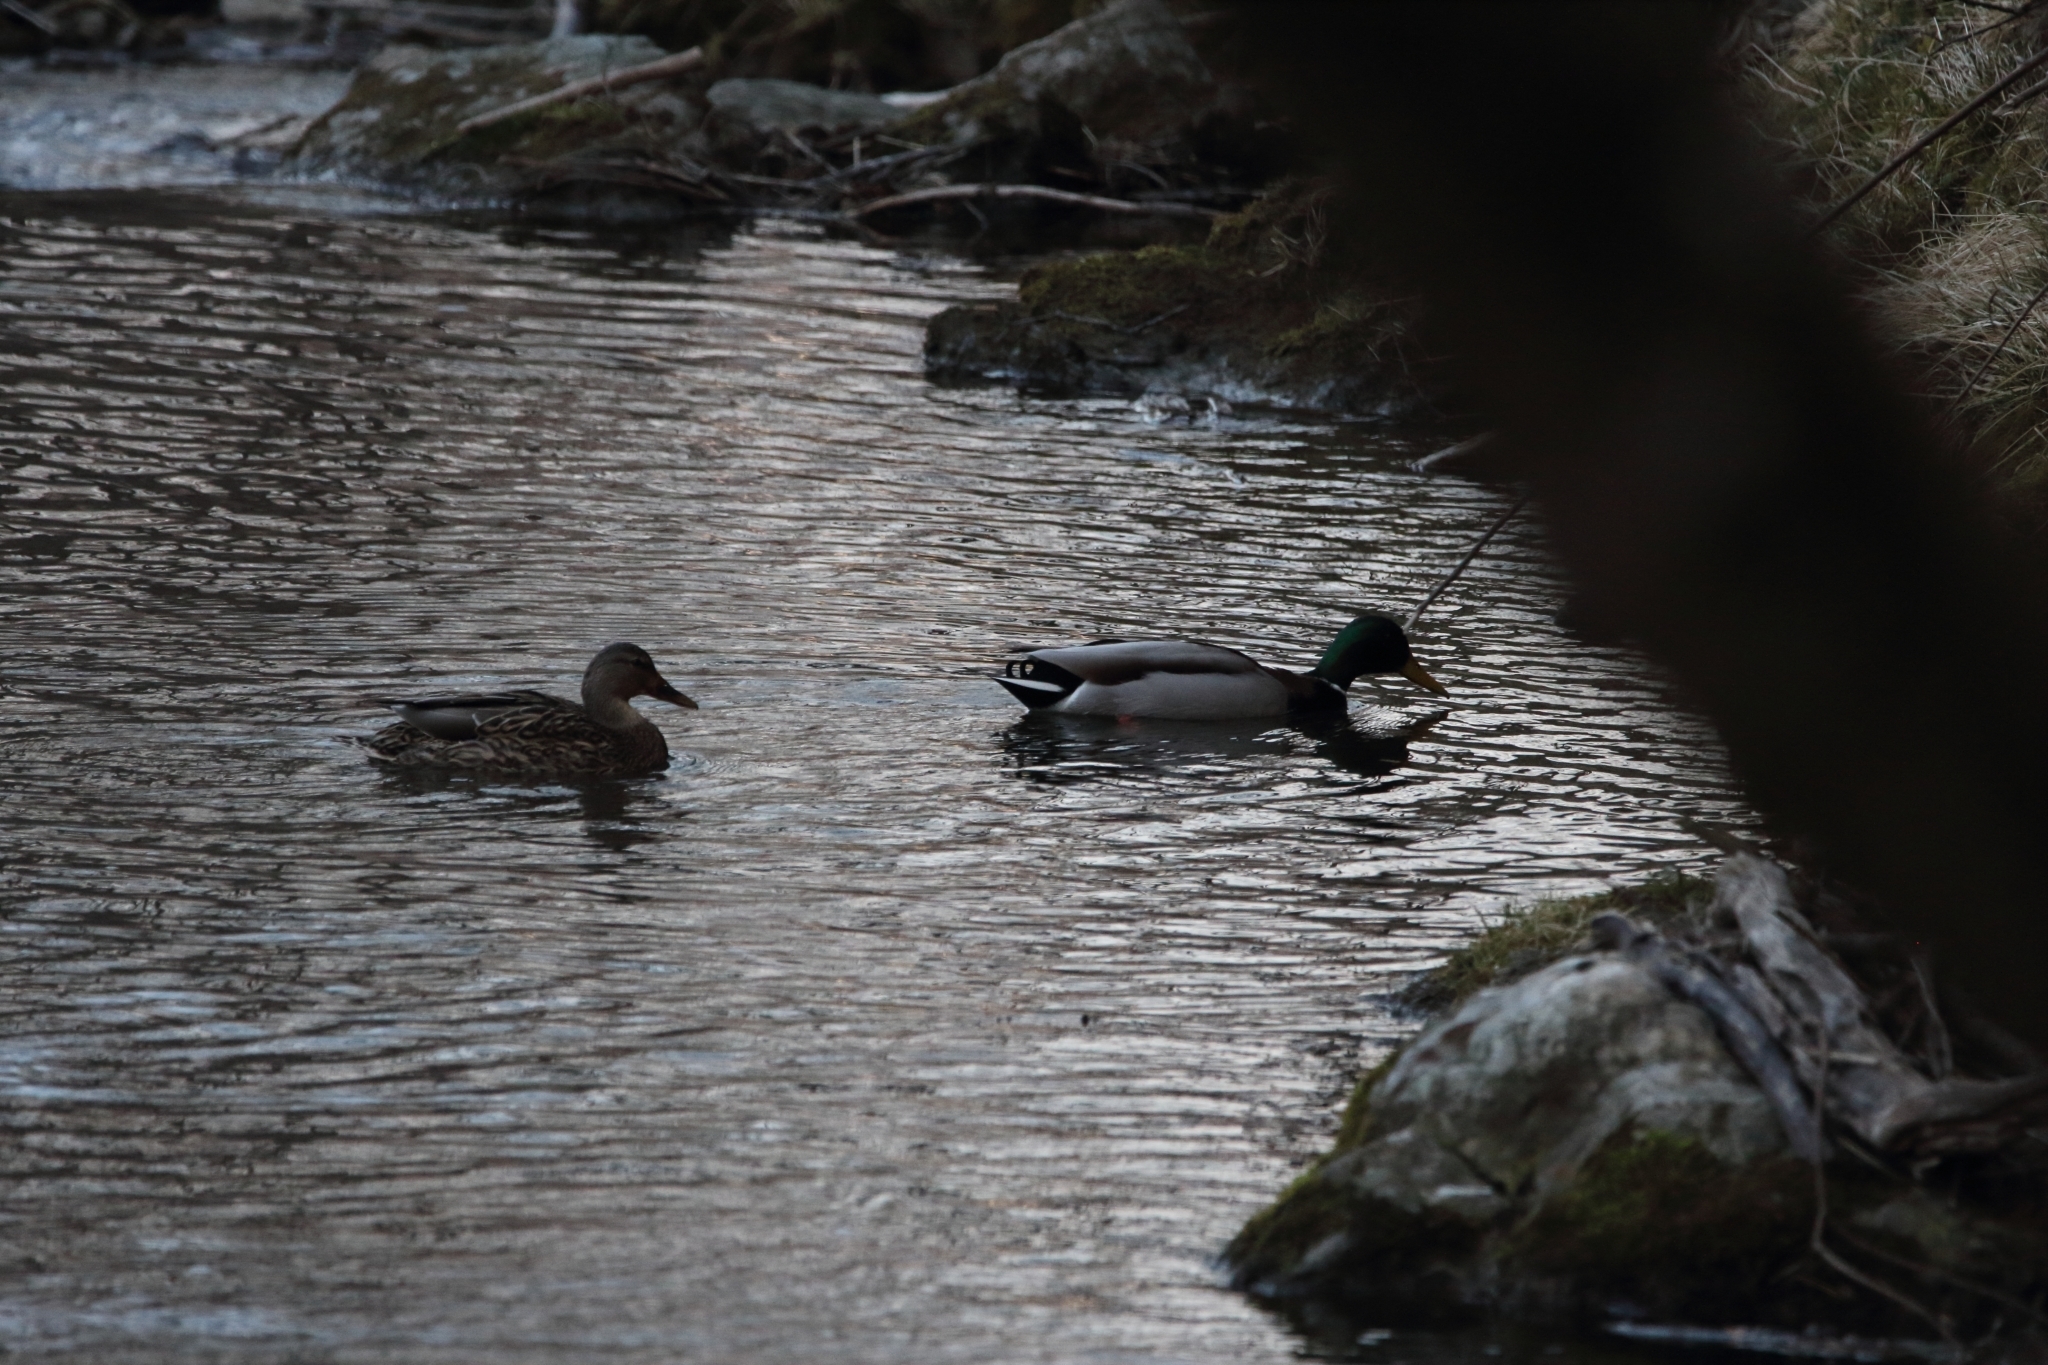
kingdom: Animalia
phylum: Chordata
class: Aves
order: Anseriformes
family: Anatidae
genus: Anas
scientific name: Anas platyrhynchos
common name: Mallard
